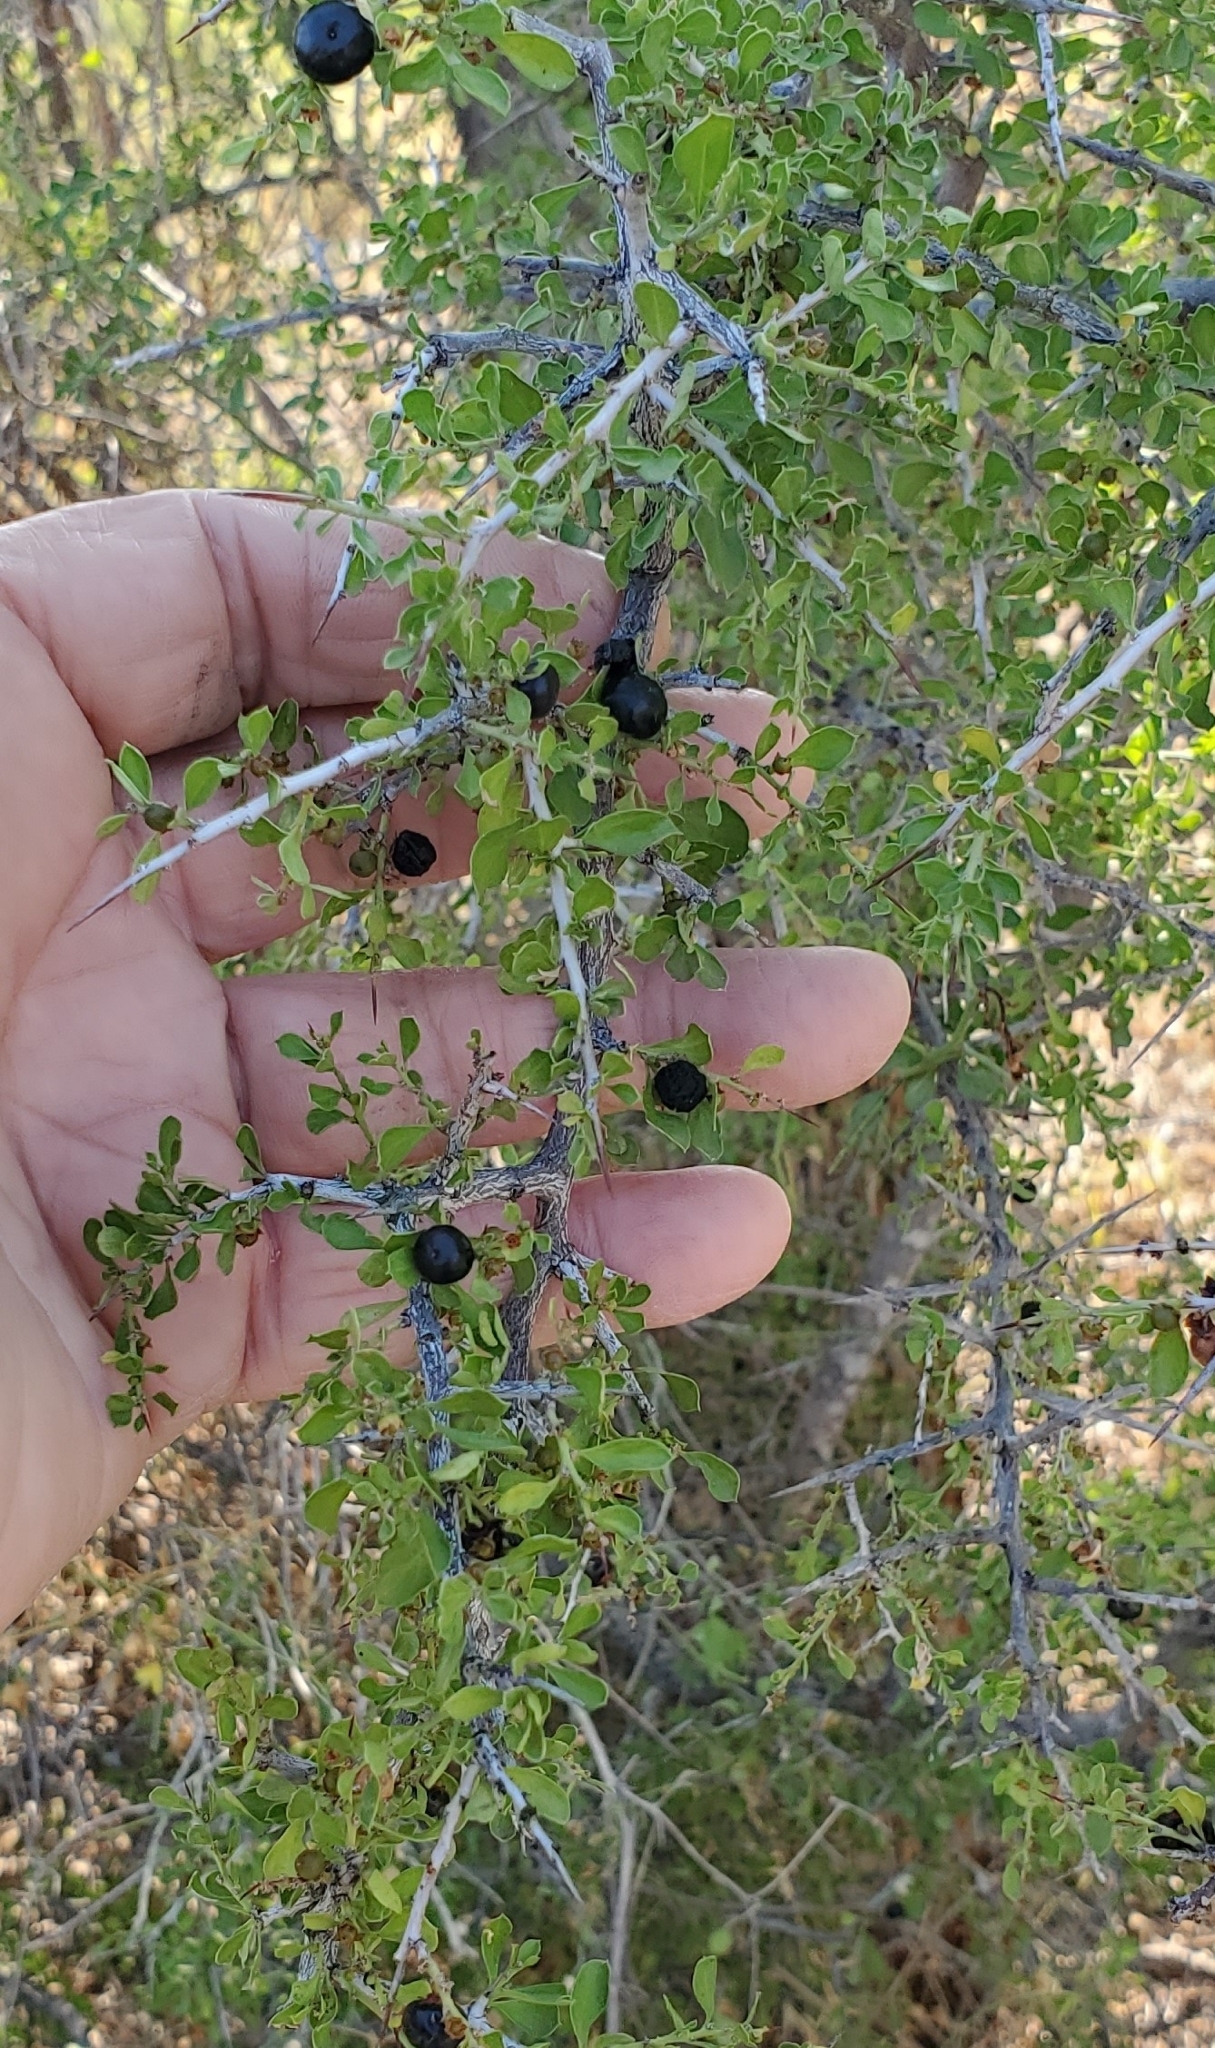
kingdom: Plantae
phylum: Tracheophyta
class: Magnoliopsida
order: Rosales
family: Rhamnaceae
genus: Condalia
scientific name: Condalia viridis
